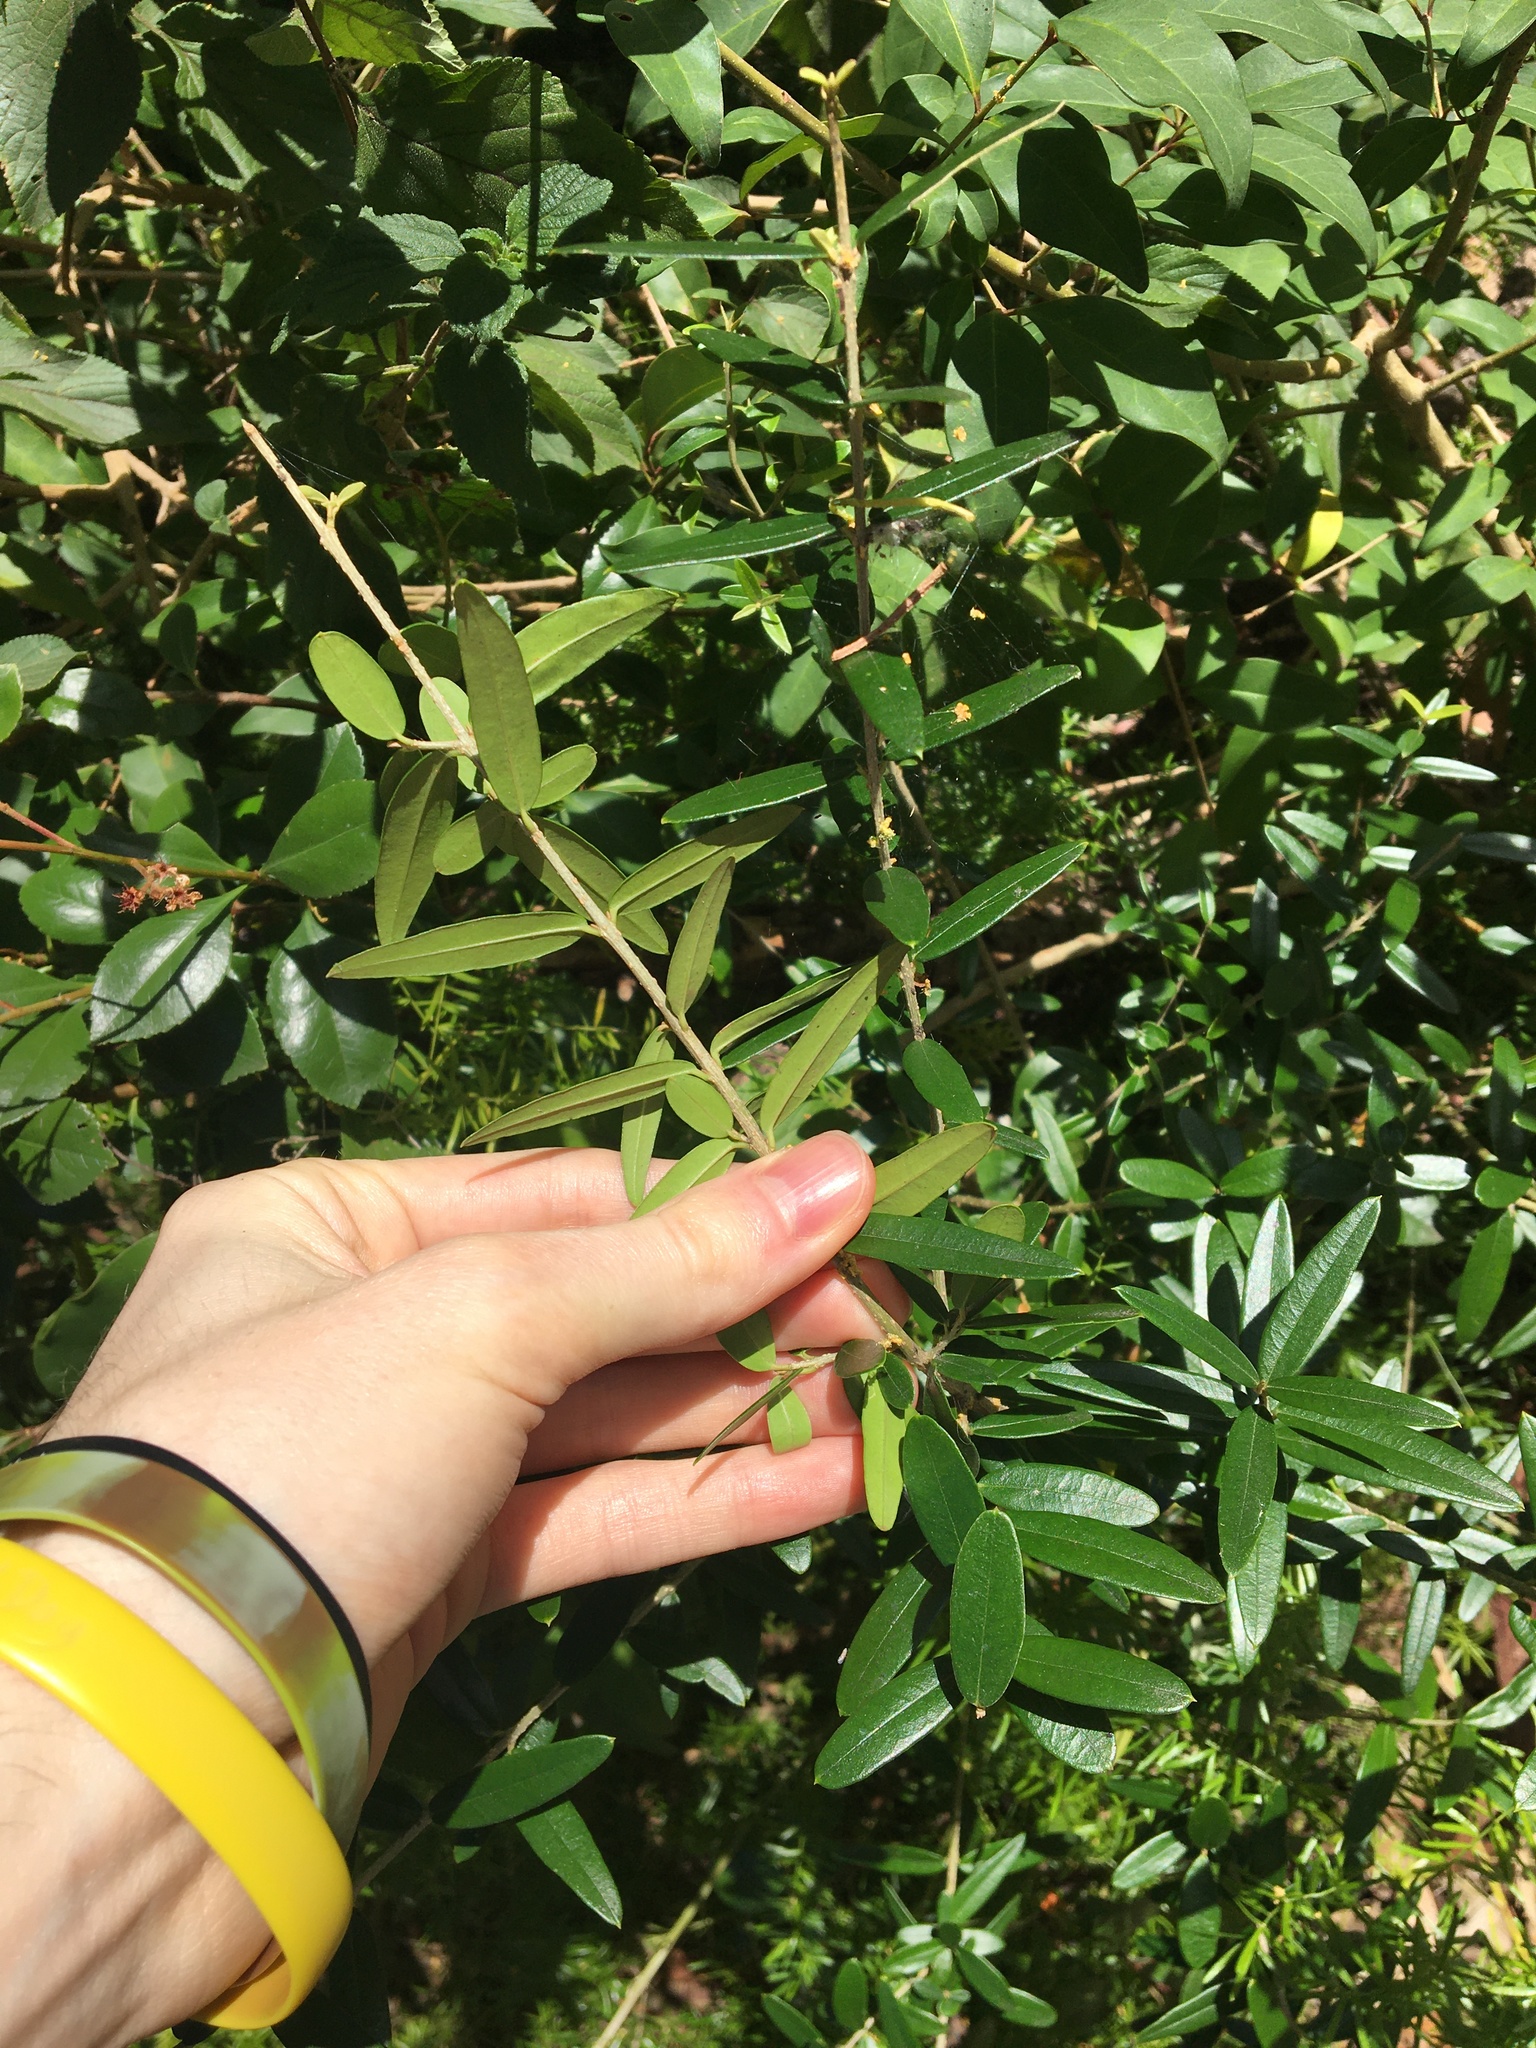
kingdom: Plantae
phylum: Tracheophyta
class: Magnoliopsida
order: Lamiales
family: Oleaceae
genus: Olea
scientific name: Olea europaea
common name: Olive
